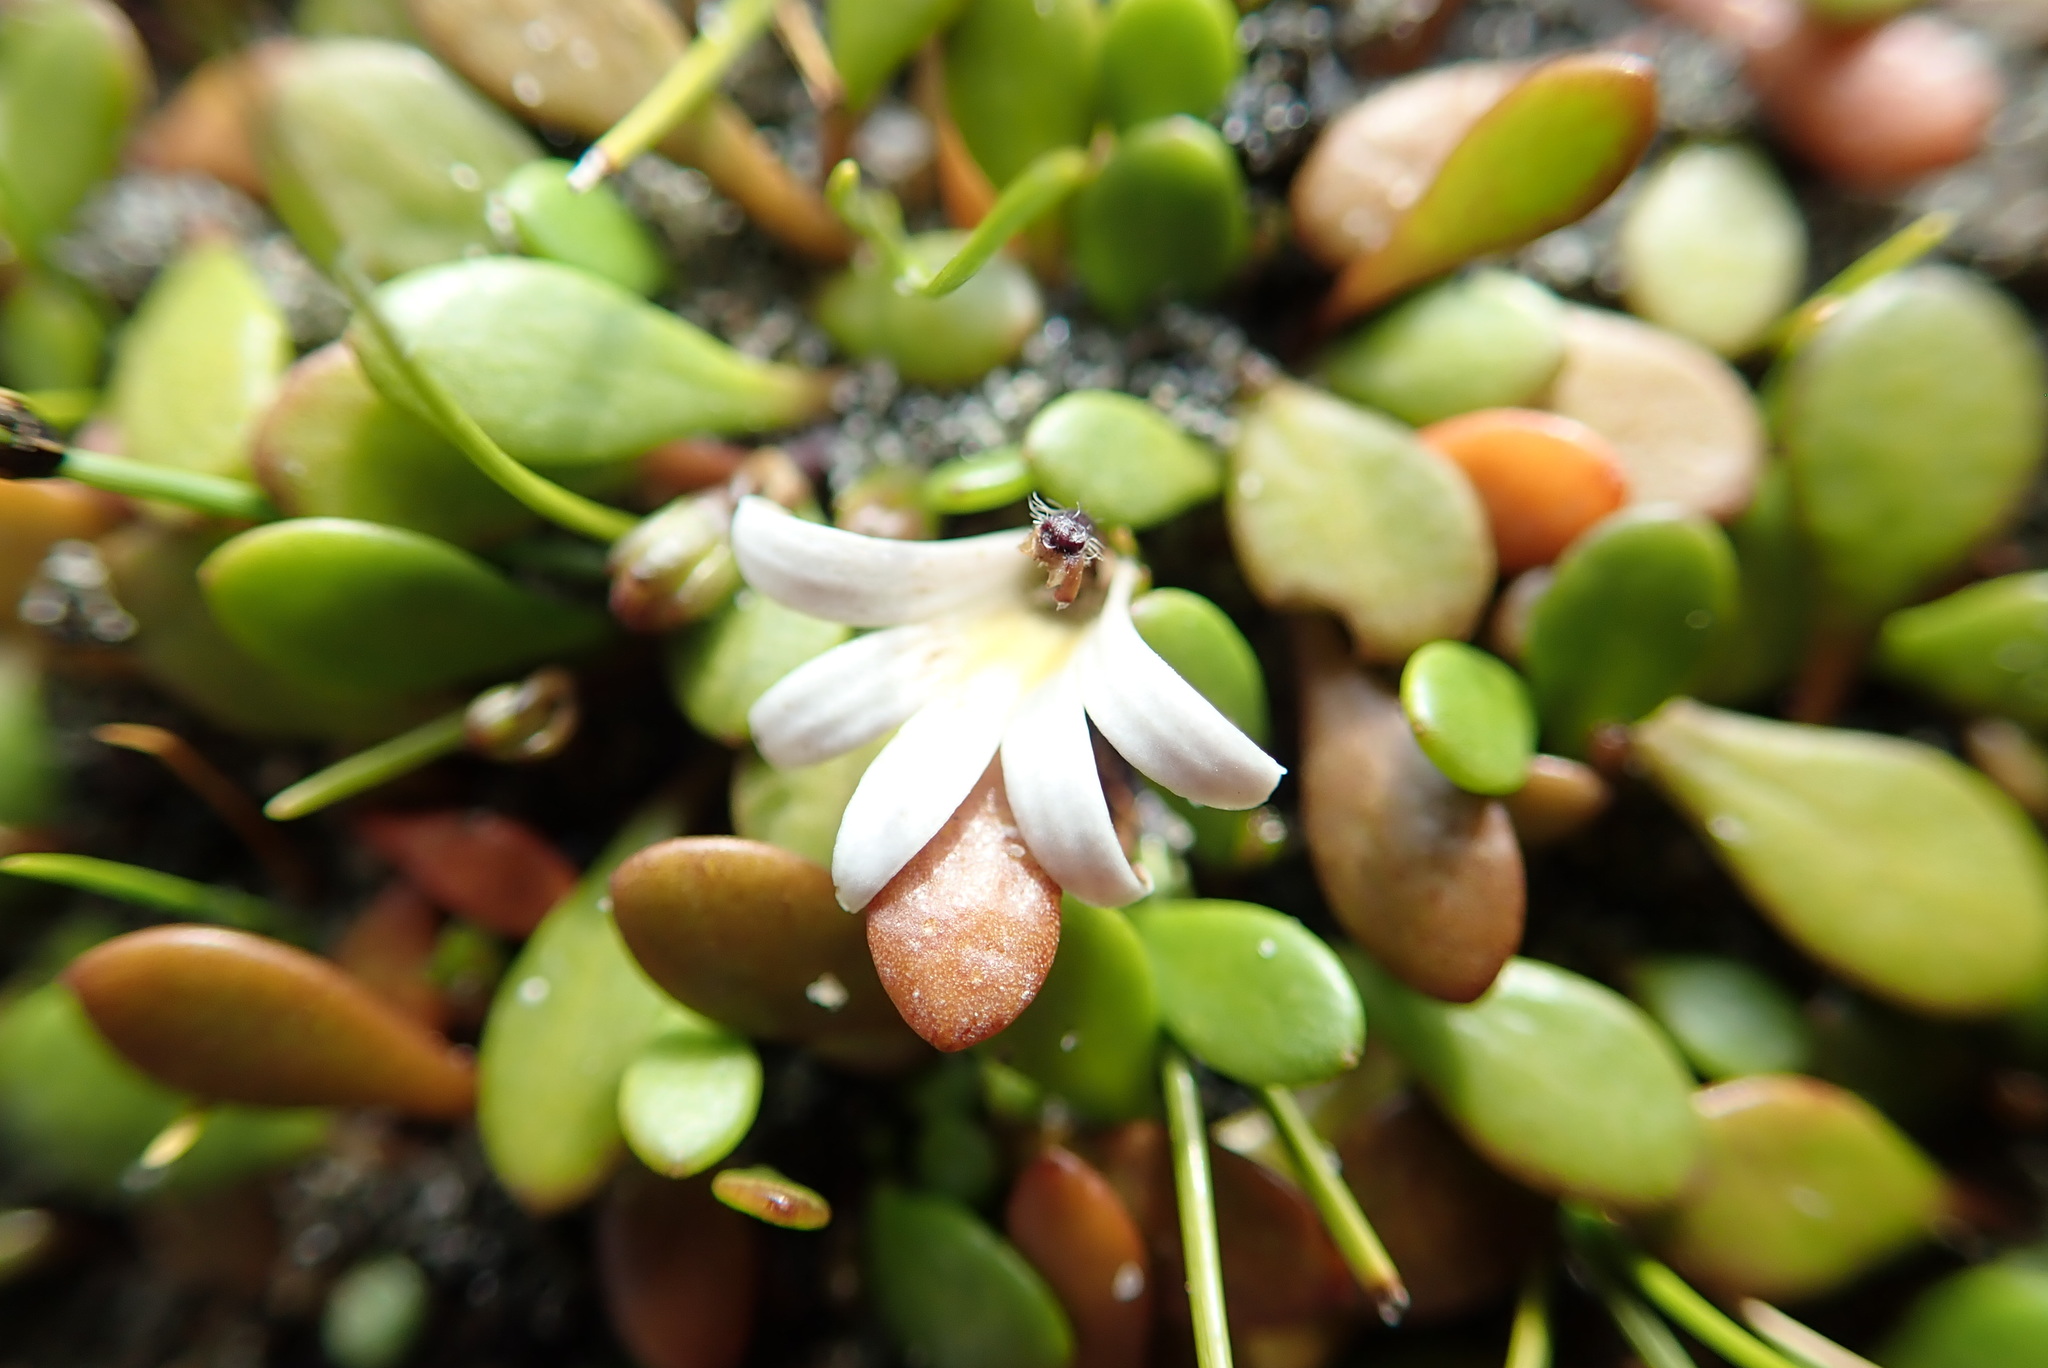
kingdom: Plantae
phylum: Tracheophyta
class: Magnoliopsida
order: Asterales
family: Goodeniaceae
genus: Goodenia
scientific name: Goodenia radicans
